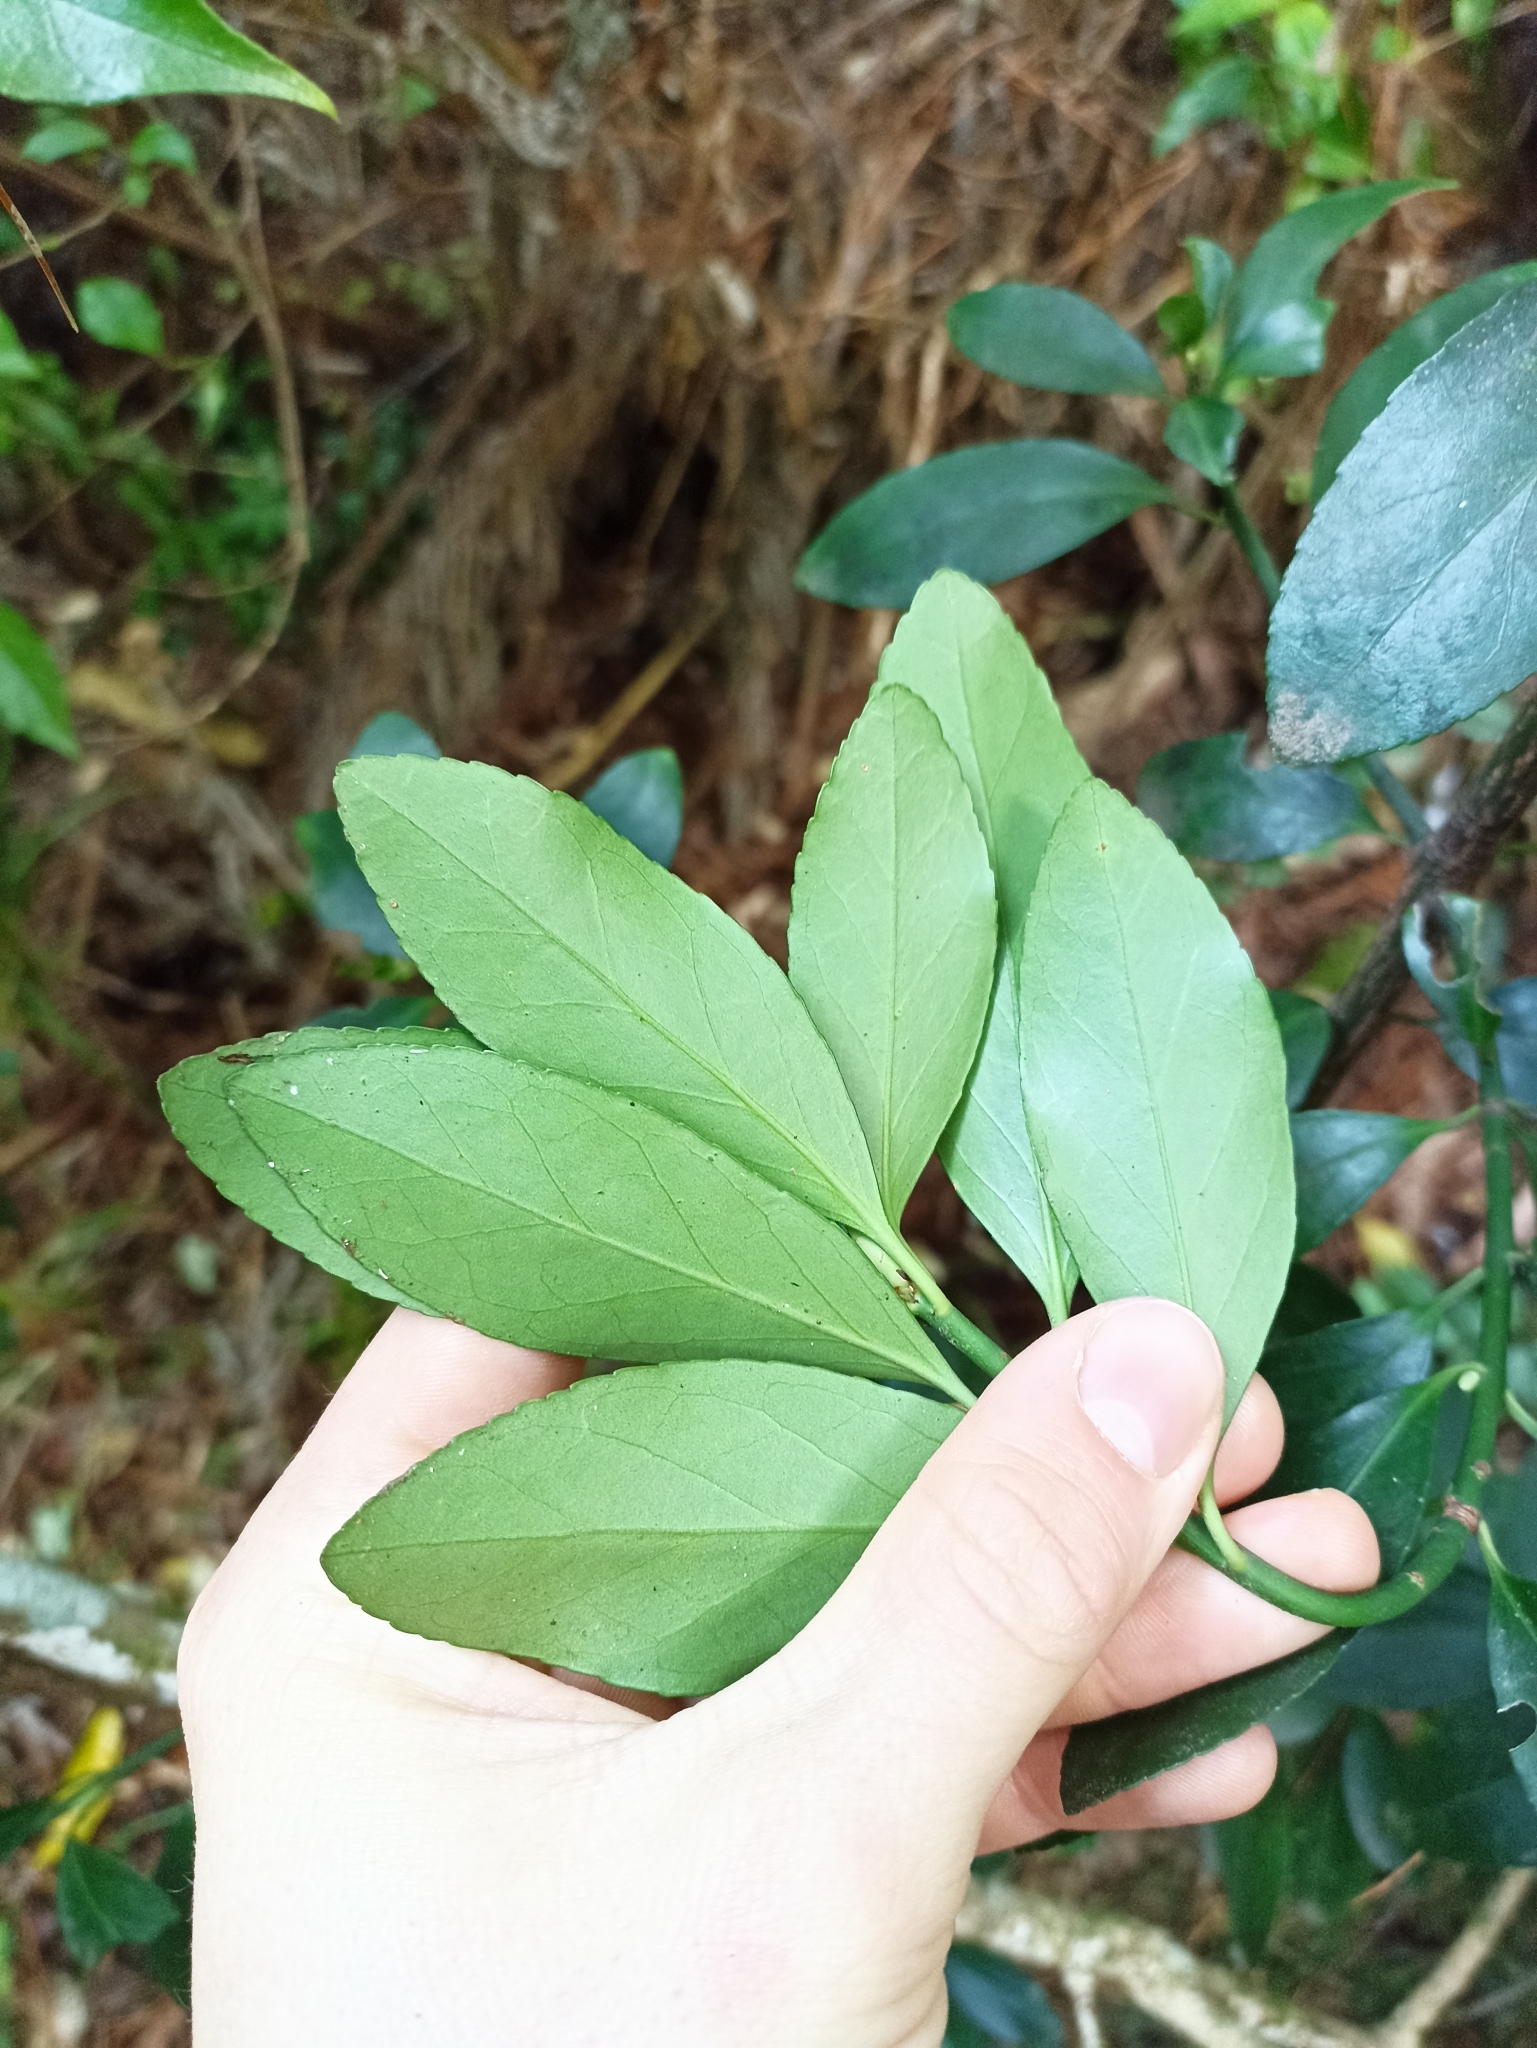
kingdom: Plantae
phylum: Tracheophyta
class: Magnoliopsida
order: Celastrales
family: Celastraceae
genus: Euonymus
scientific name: Euonymus japonicus
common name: Japanese spindletree
